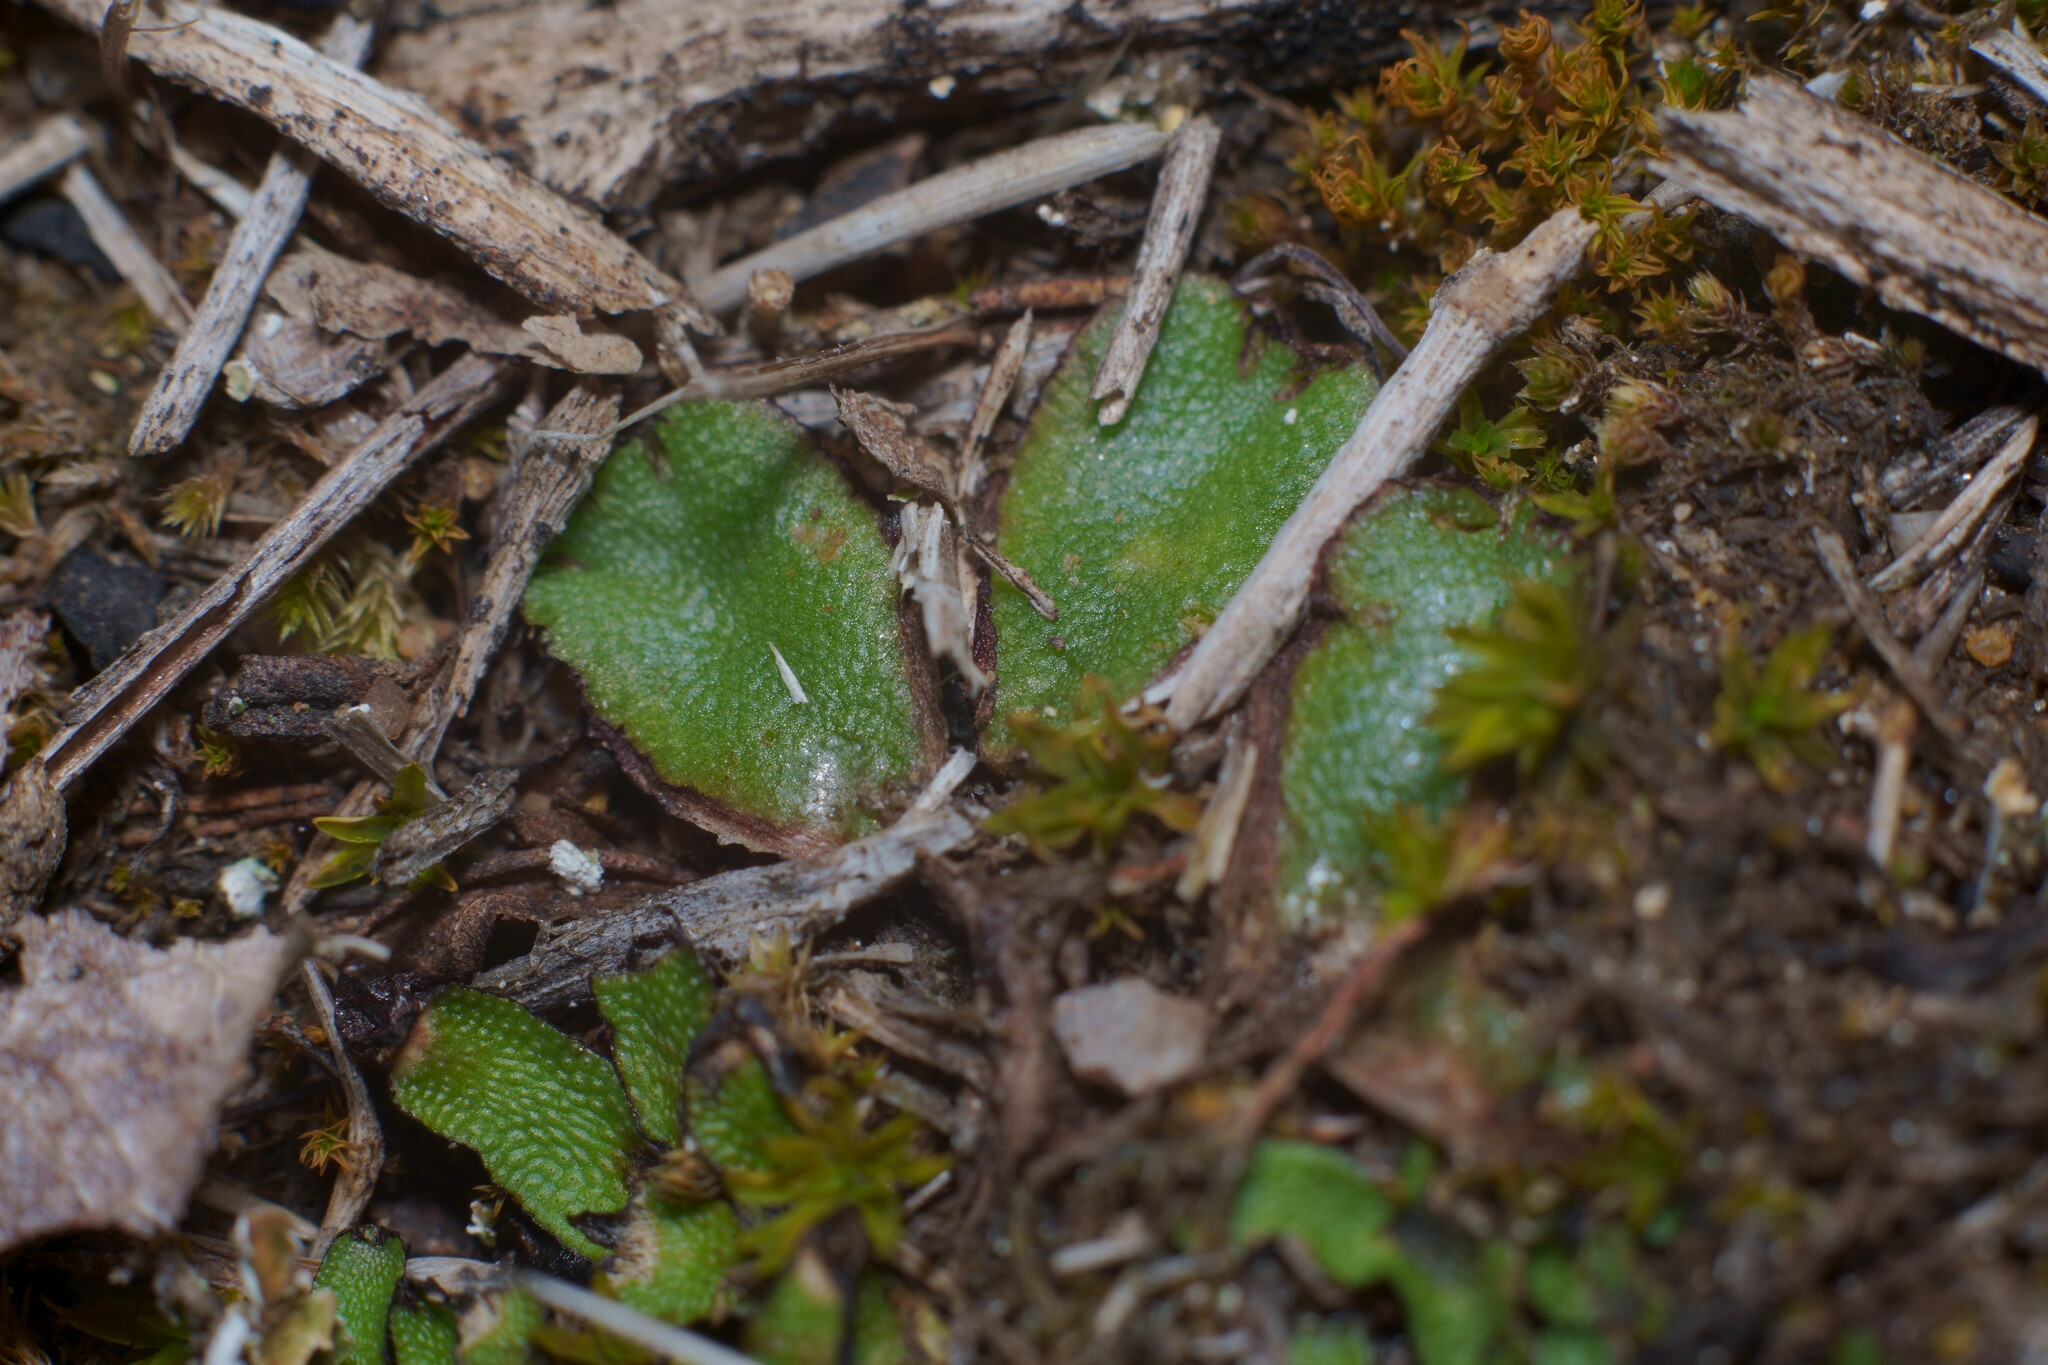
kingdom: Plantae
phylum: Marchantiophyta
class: Marchantiopsida
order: Marchantiales
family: Aytoniaceae
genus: Asterella
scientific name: Asterella californica
